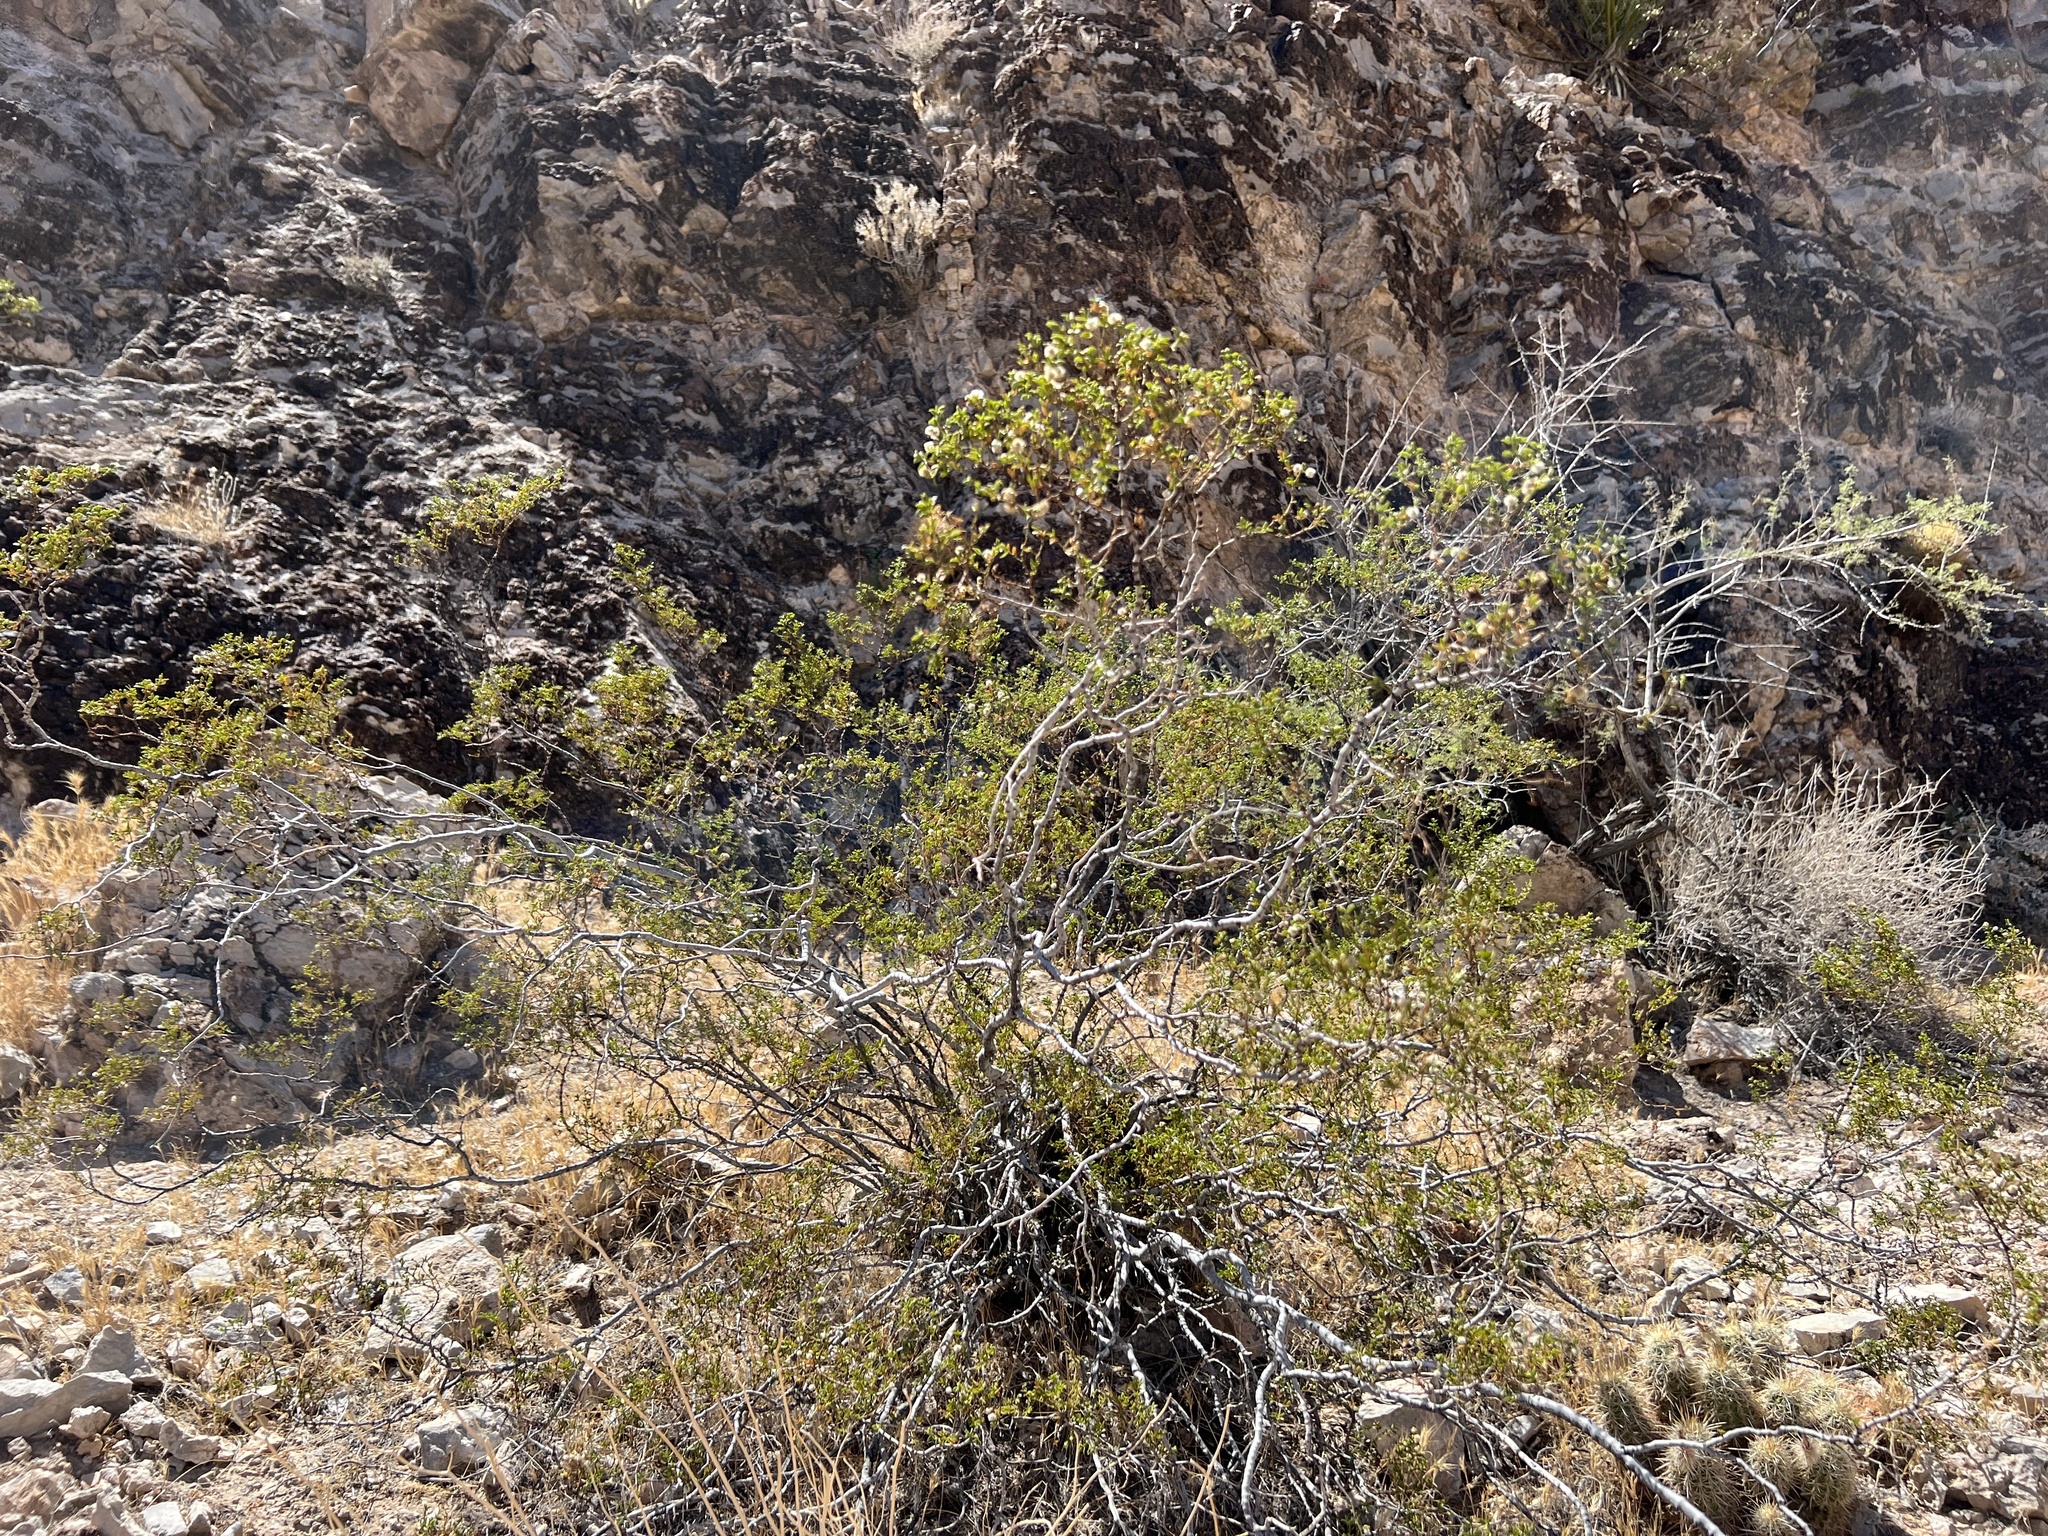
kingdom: Plantae
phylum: Tracheophyta
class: Magnoliopsida
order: Zygophyllales
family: Zygophyllaceae
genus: Larrea
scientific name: Larrea tridentata
